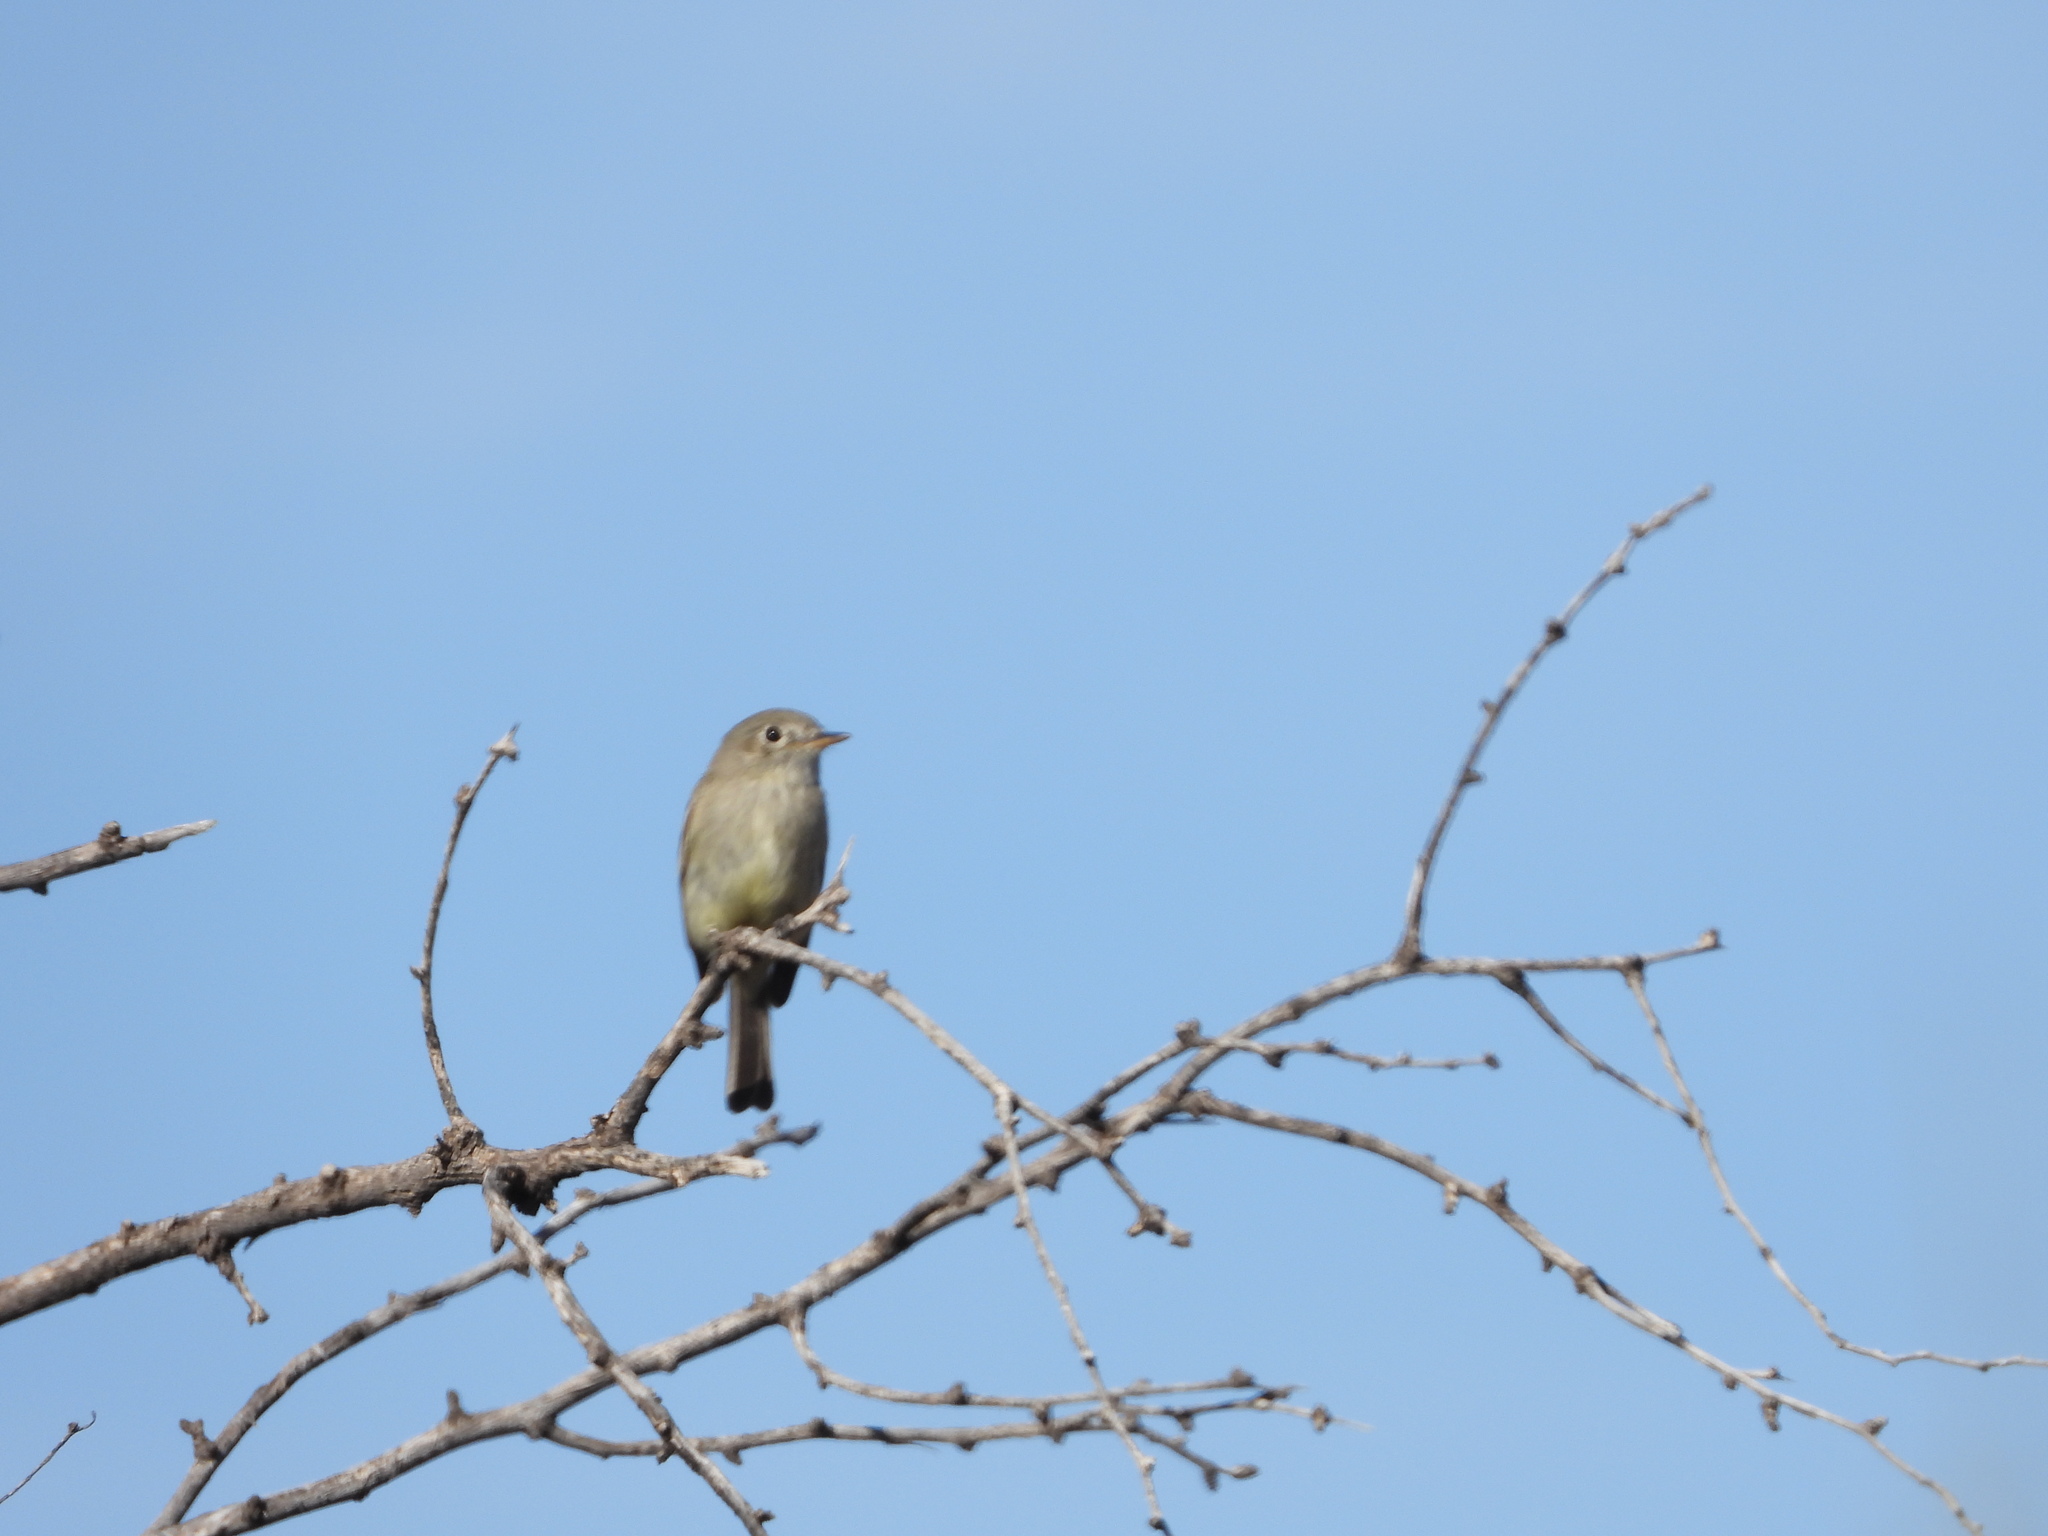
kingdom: Animalia
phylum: Chordata
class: Aves
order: Passeriformes
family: Tyrannidae
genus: Empidonax
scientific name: Empidonax wrightii
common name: Gray flycatcher
